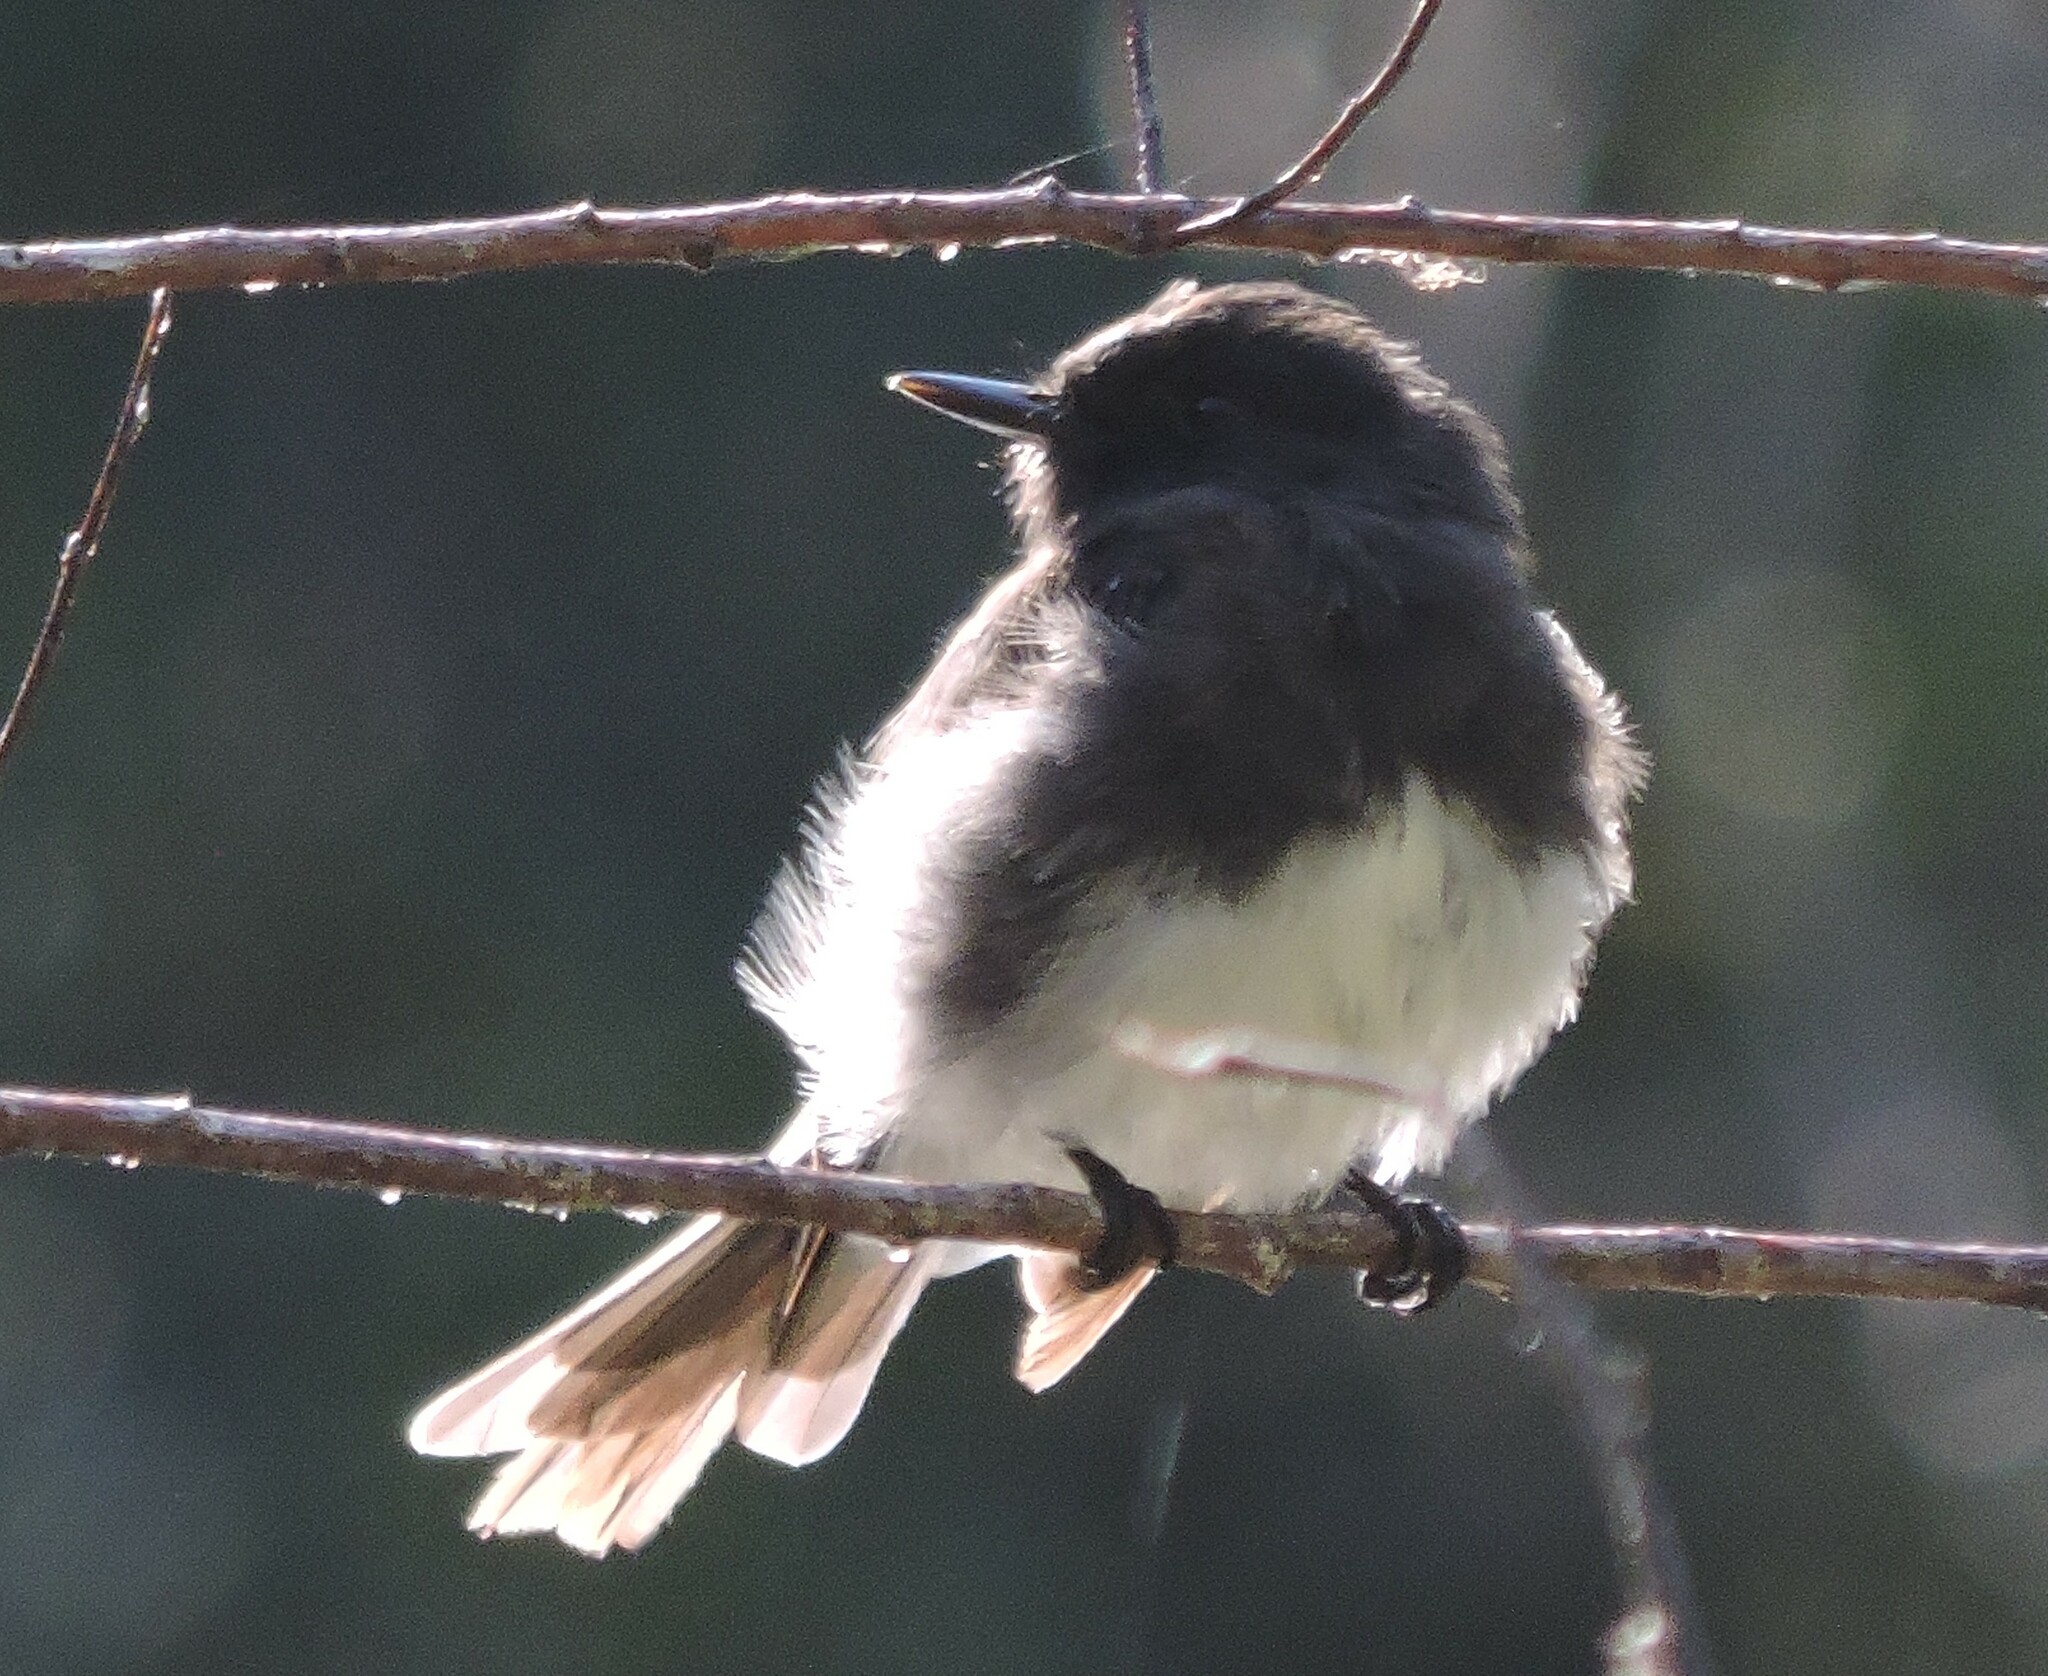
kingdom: Animalia
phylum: Chordata
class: Aves
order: Passeriformes
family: Tyrannidae
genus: Sayornis
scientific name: Sayornis nigricans
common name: Black phoebe
